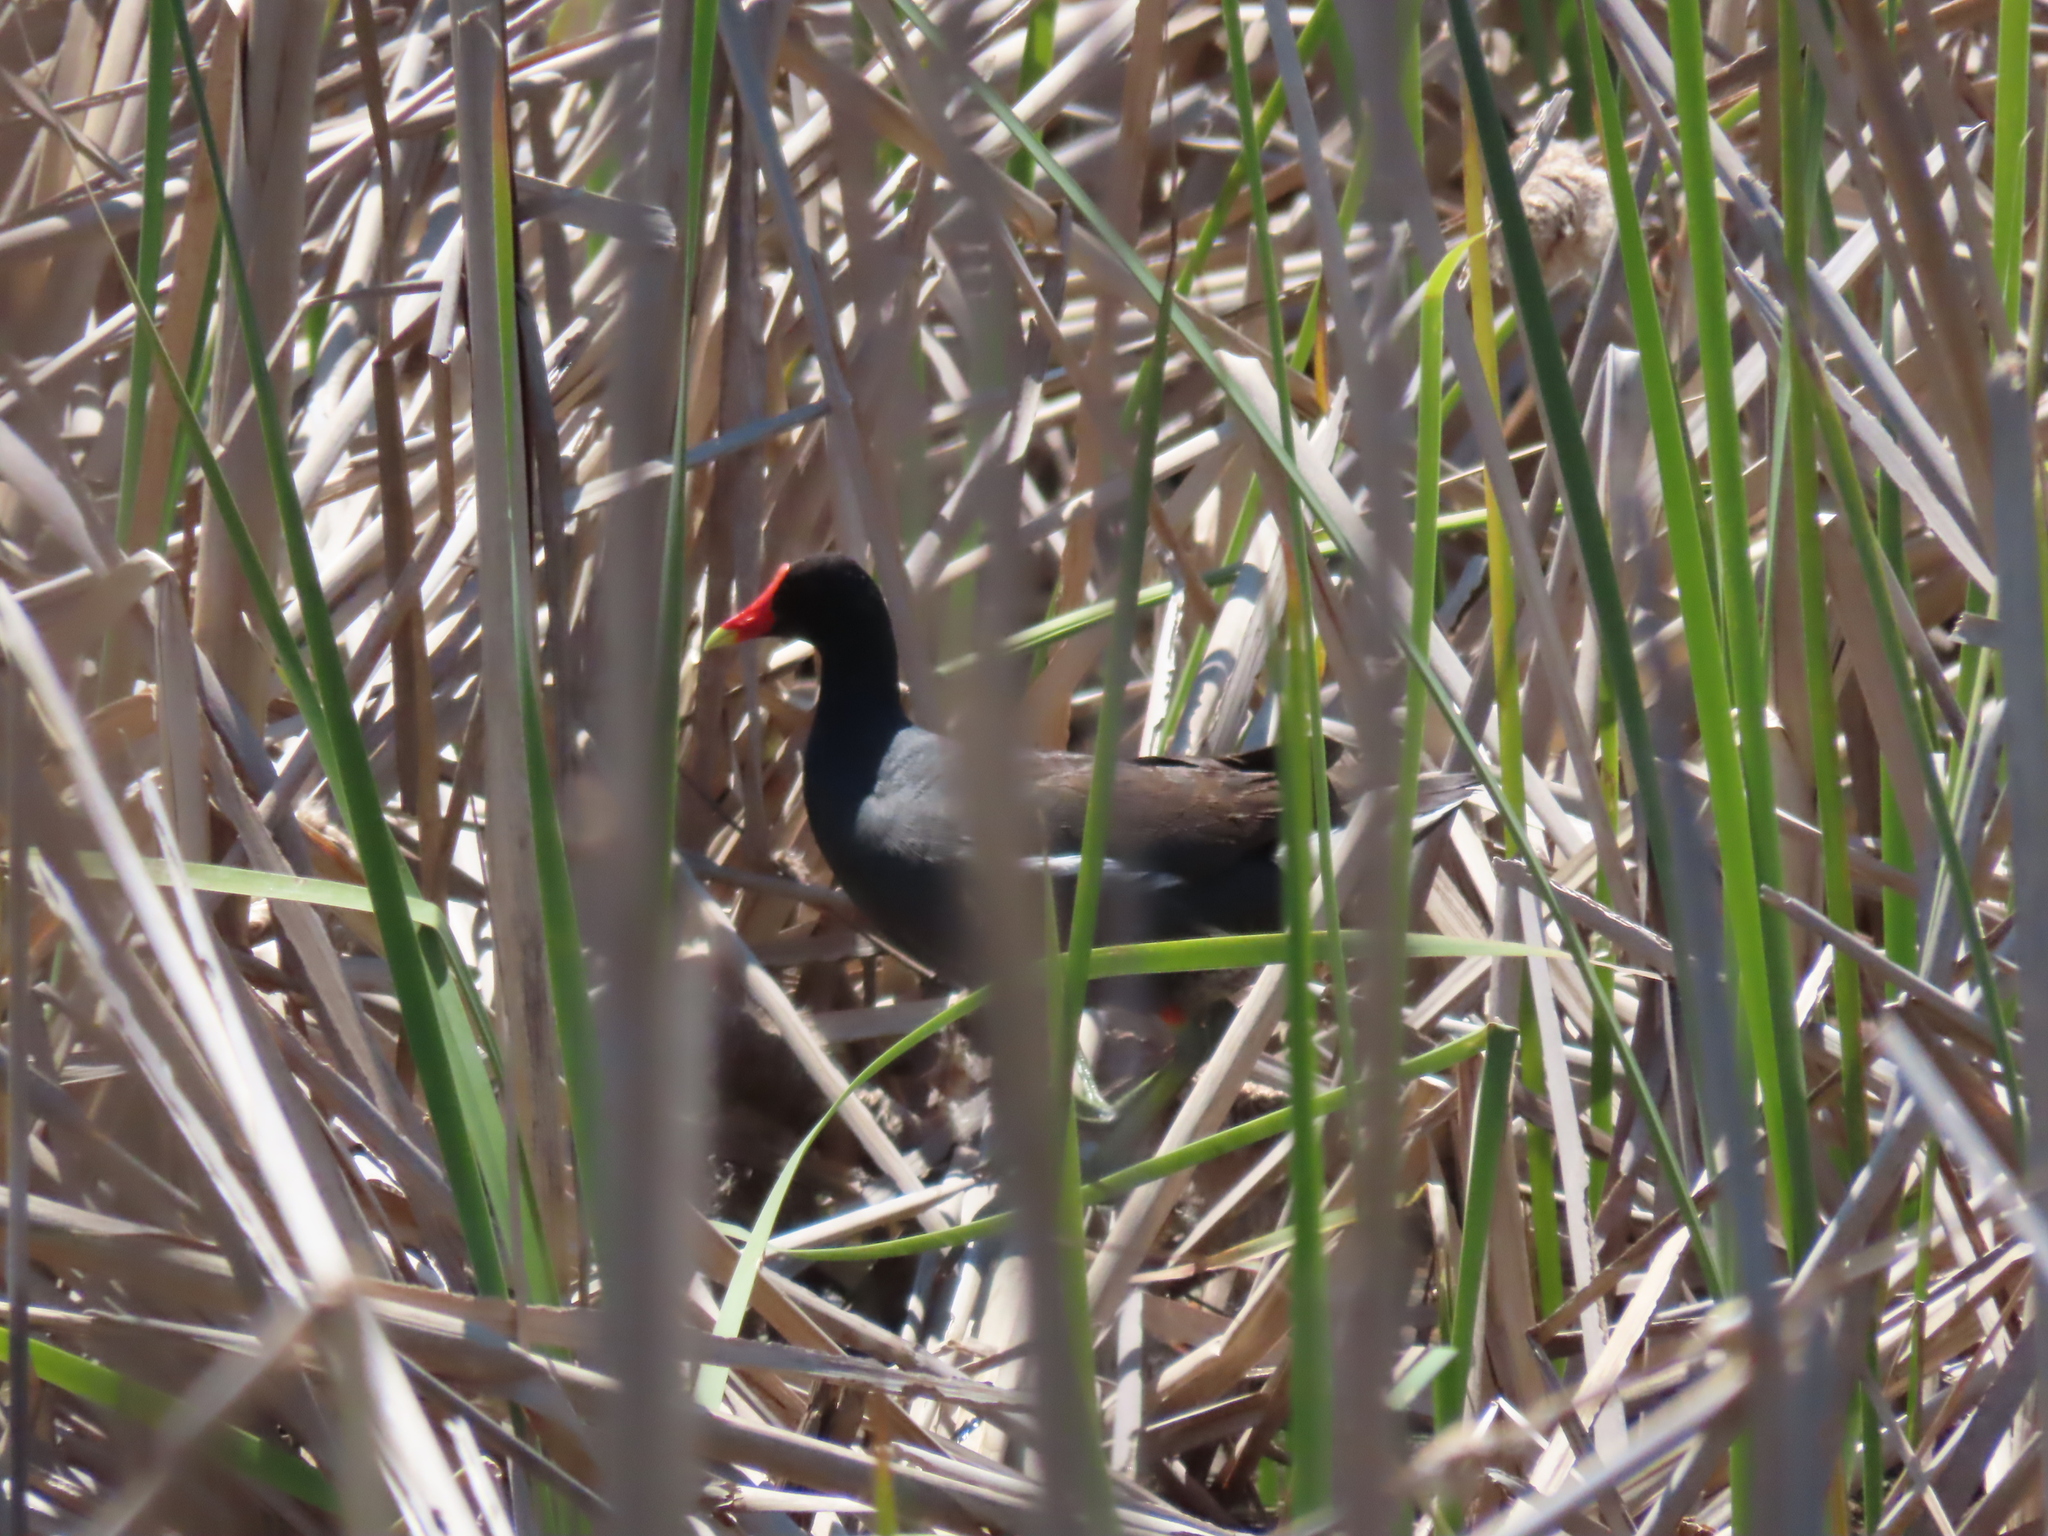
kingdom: Animalia
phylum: Chordata
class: Aves
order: Gruiformes
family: Rallidae
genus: Gallinula
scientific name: Gallinula chloropus
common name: Common moorhen
